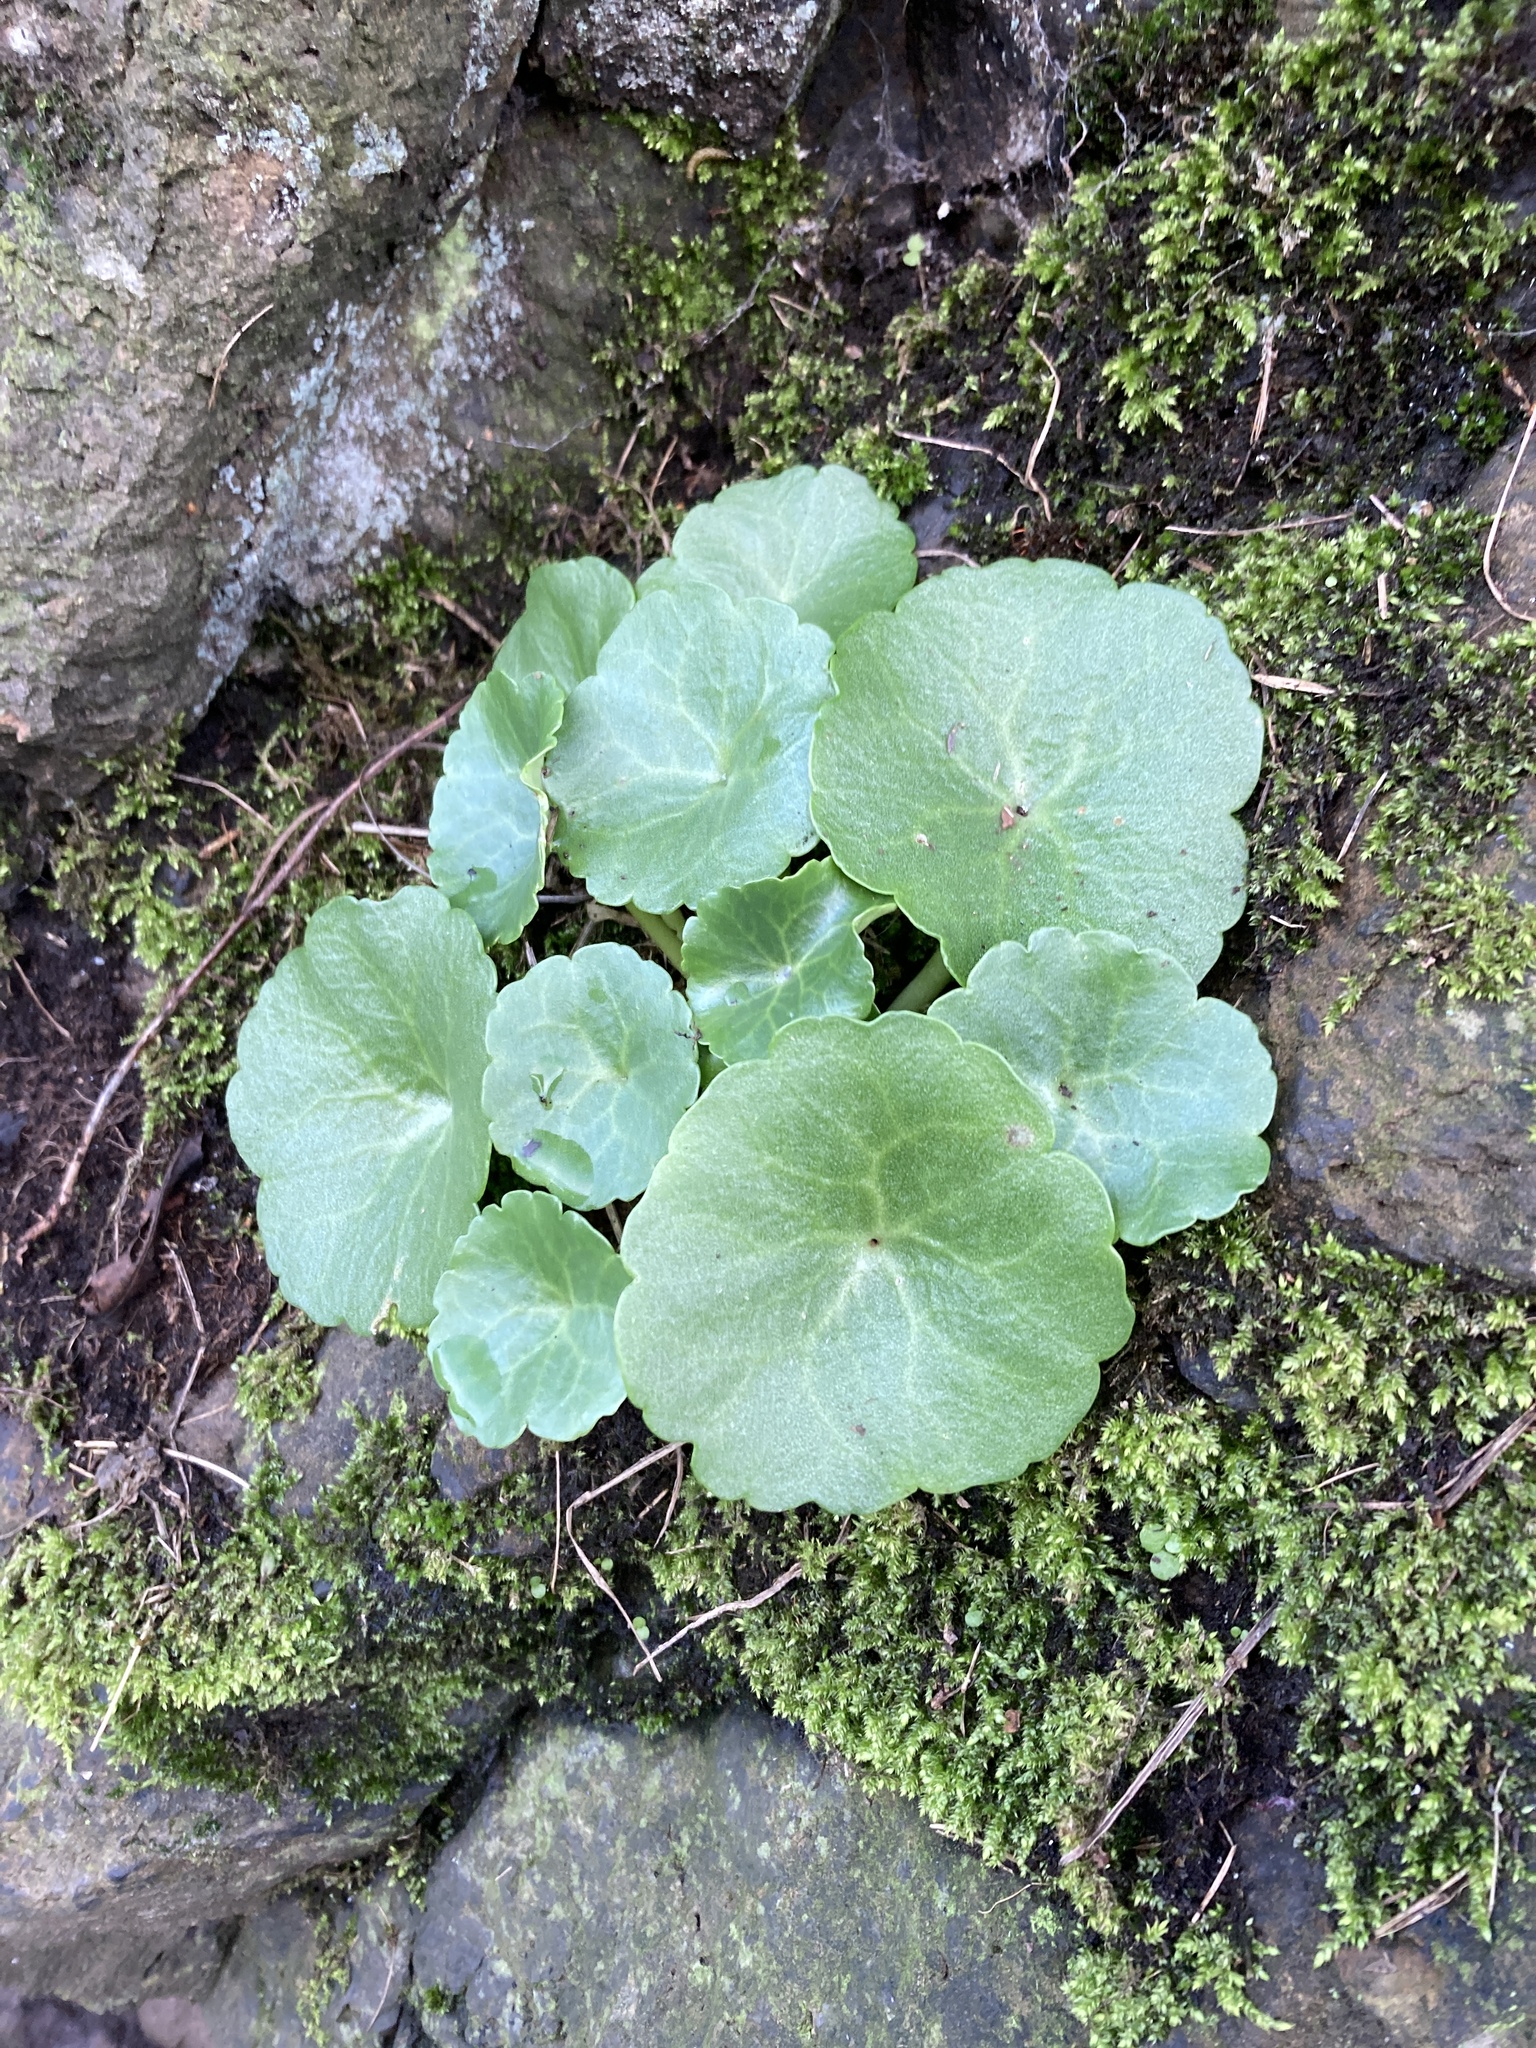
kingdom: Plantae
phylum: Tracheophyta
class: Magnoliopsida
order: Saxifragales
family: Crassulaceae
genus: Umbilicus
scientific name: Umbilicus rupestris
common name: Navelwort
